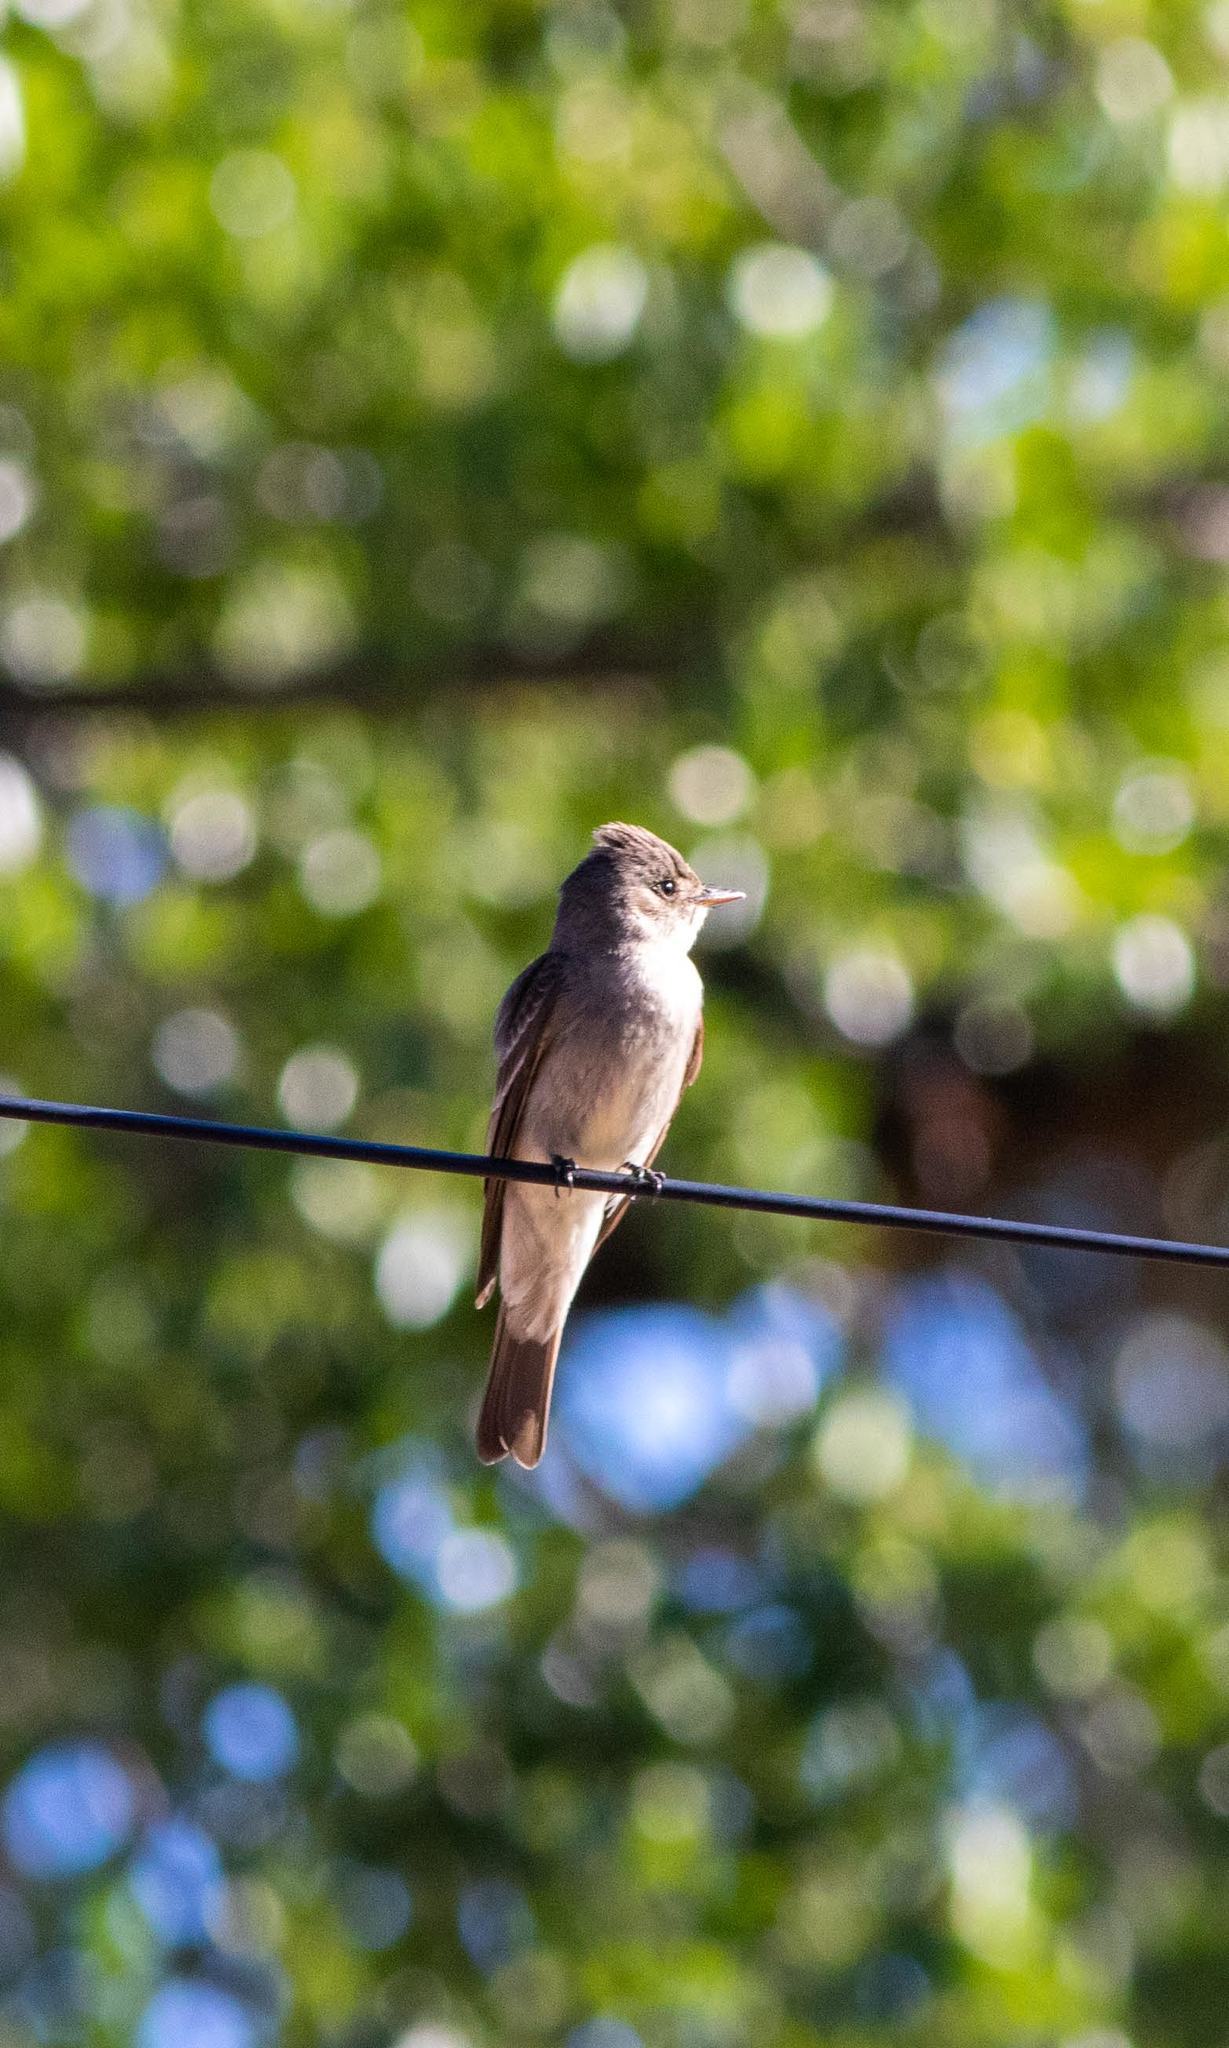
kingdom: Animalia
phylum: Chordata
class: Aves
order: Passeriformes
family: Tyrannidae
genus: Contopus
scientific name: Contopus sordidulus
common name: Western wood-pewee
